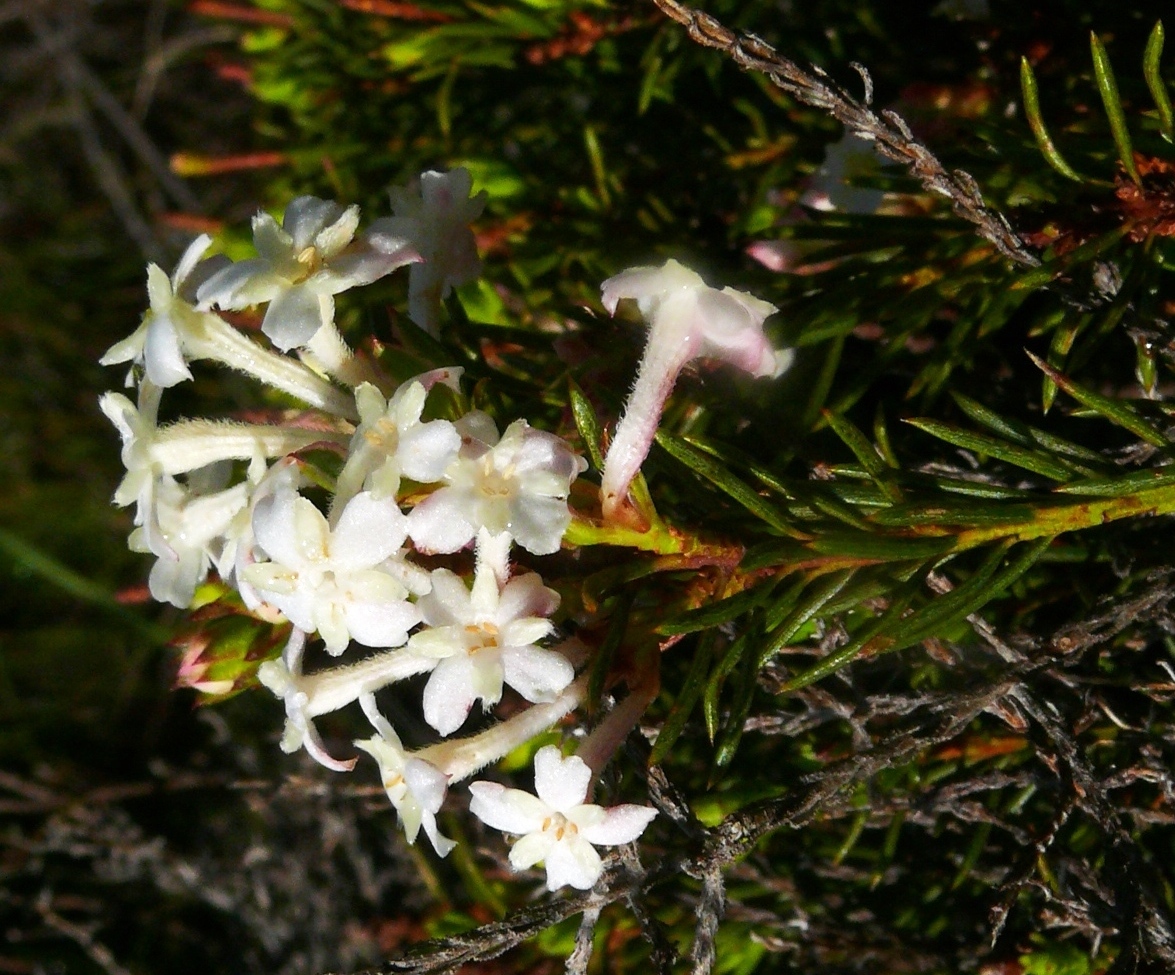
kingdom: Plantae
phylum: Tracheophyta
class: Magnoliopsida
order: Malvales
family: Thymelaeaceae
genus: Gnidia
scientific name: Gnidia pinifolia
